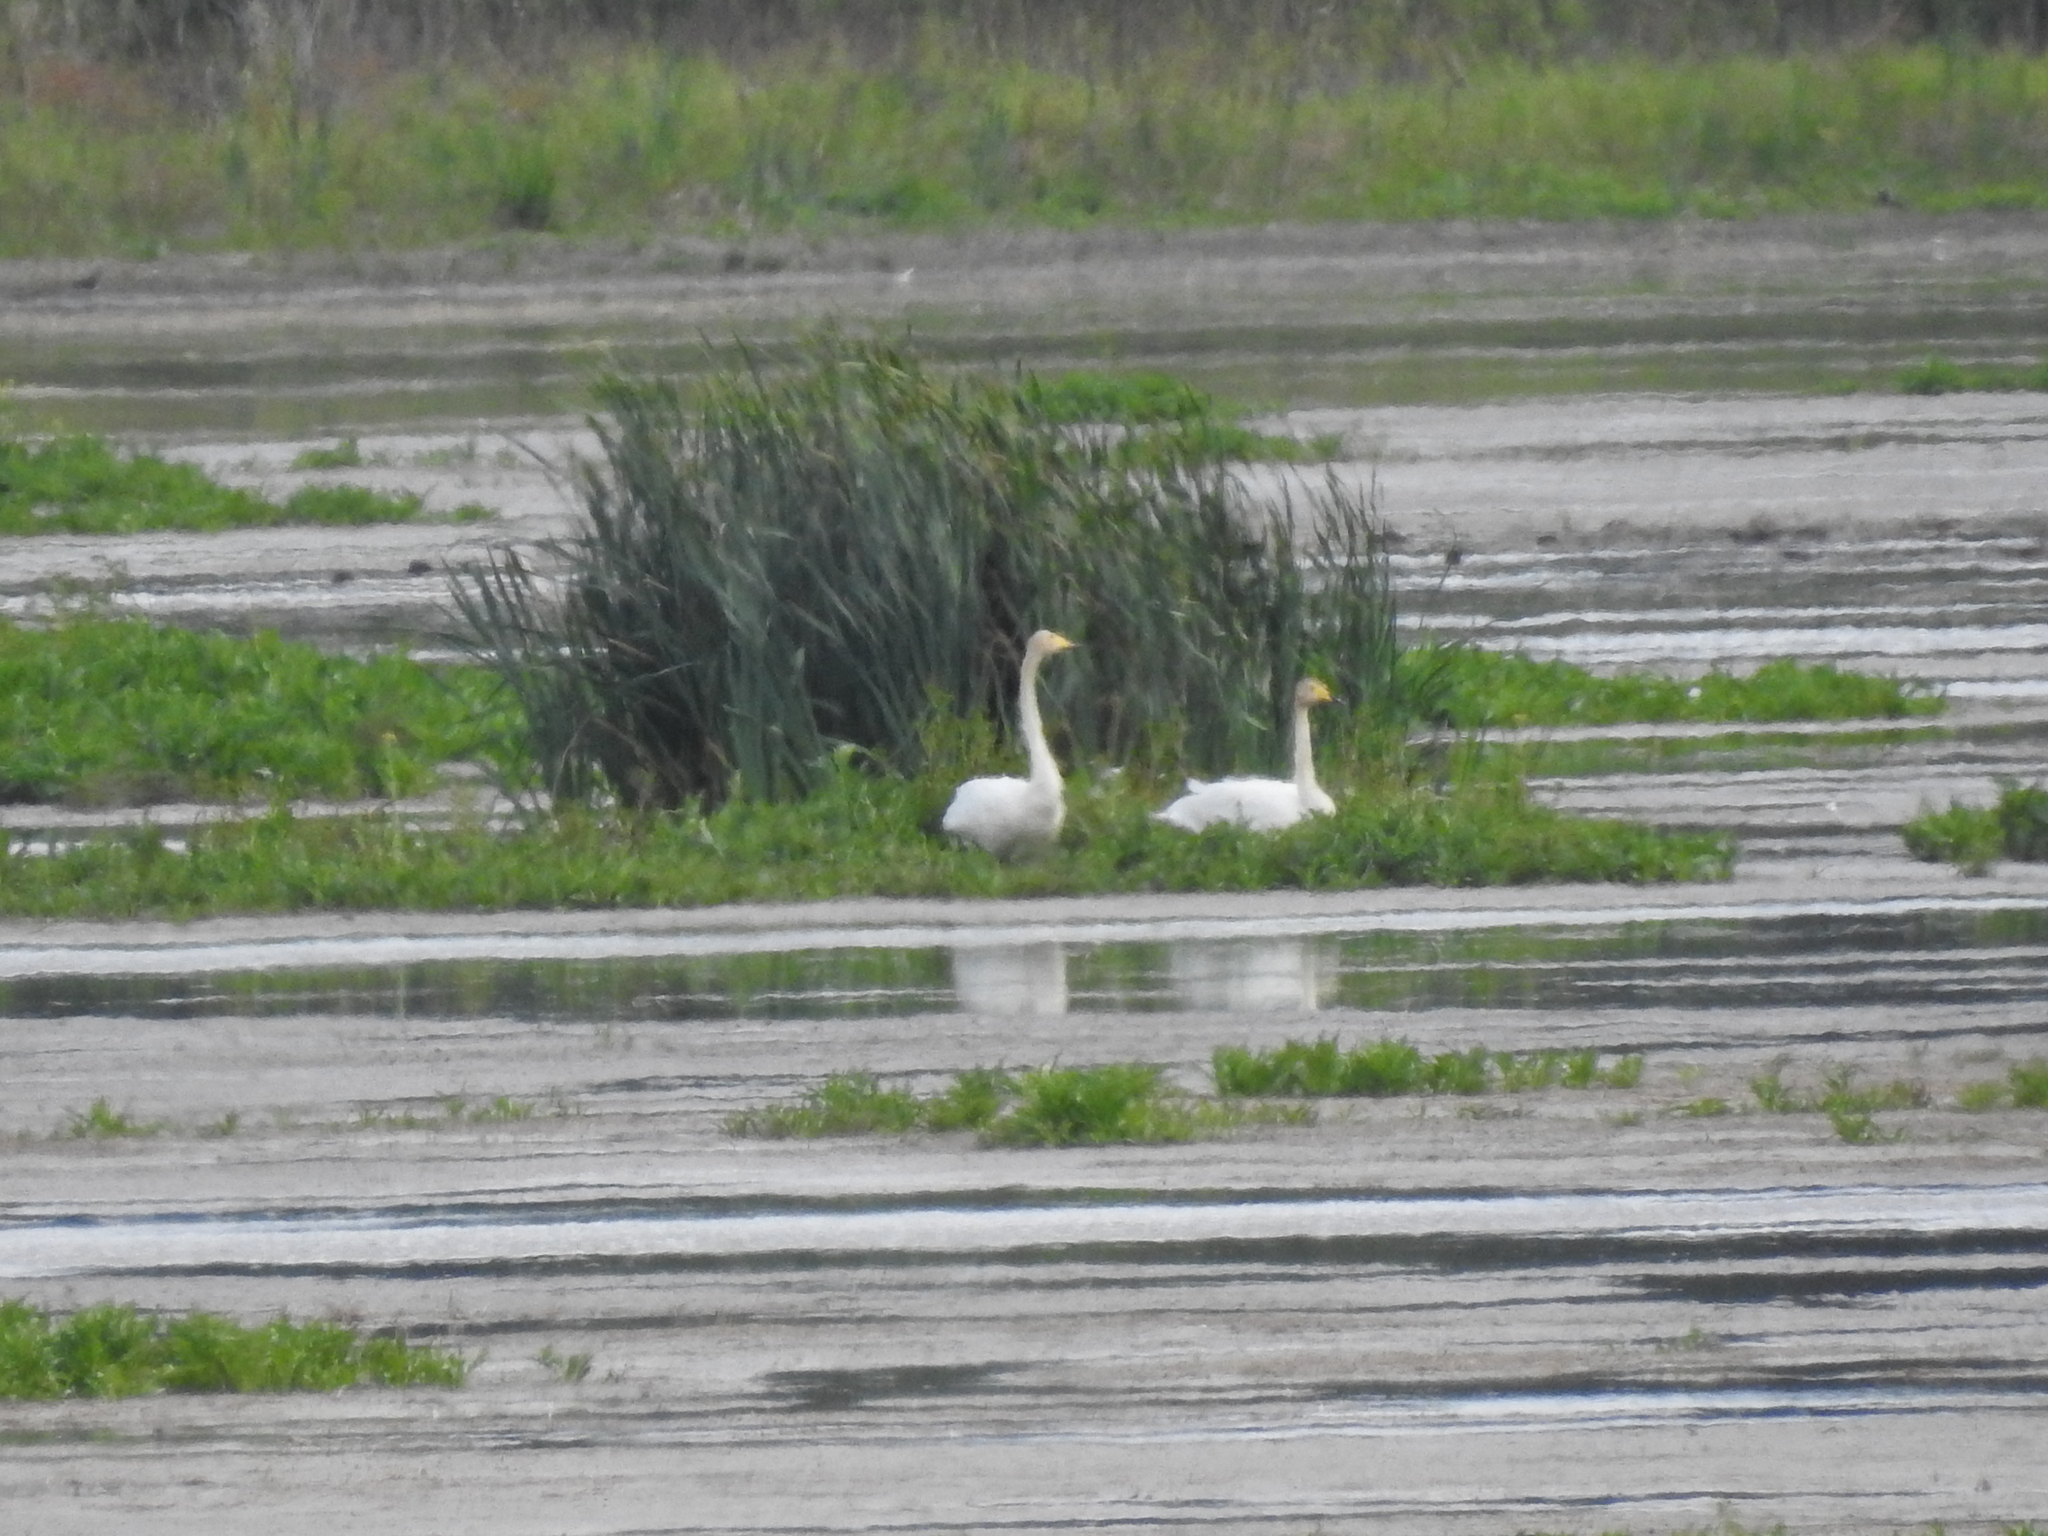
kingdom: Animalia
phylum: Chordata
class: Aves
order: Anseriformes
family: Anatidae
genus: Cygnus
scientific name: Cygnus cygnus
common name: Whooper swan
